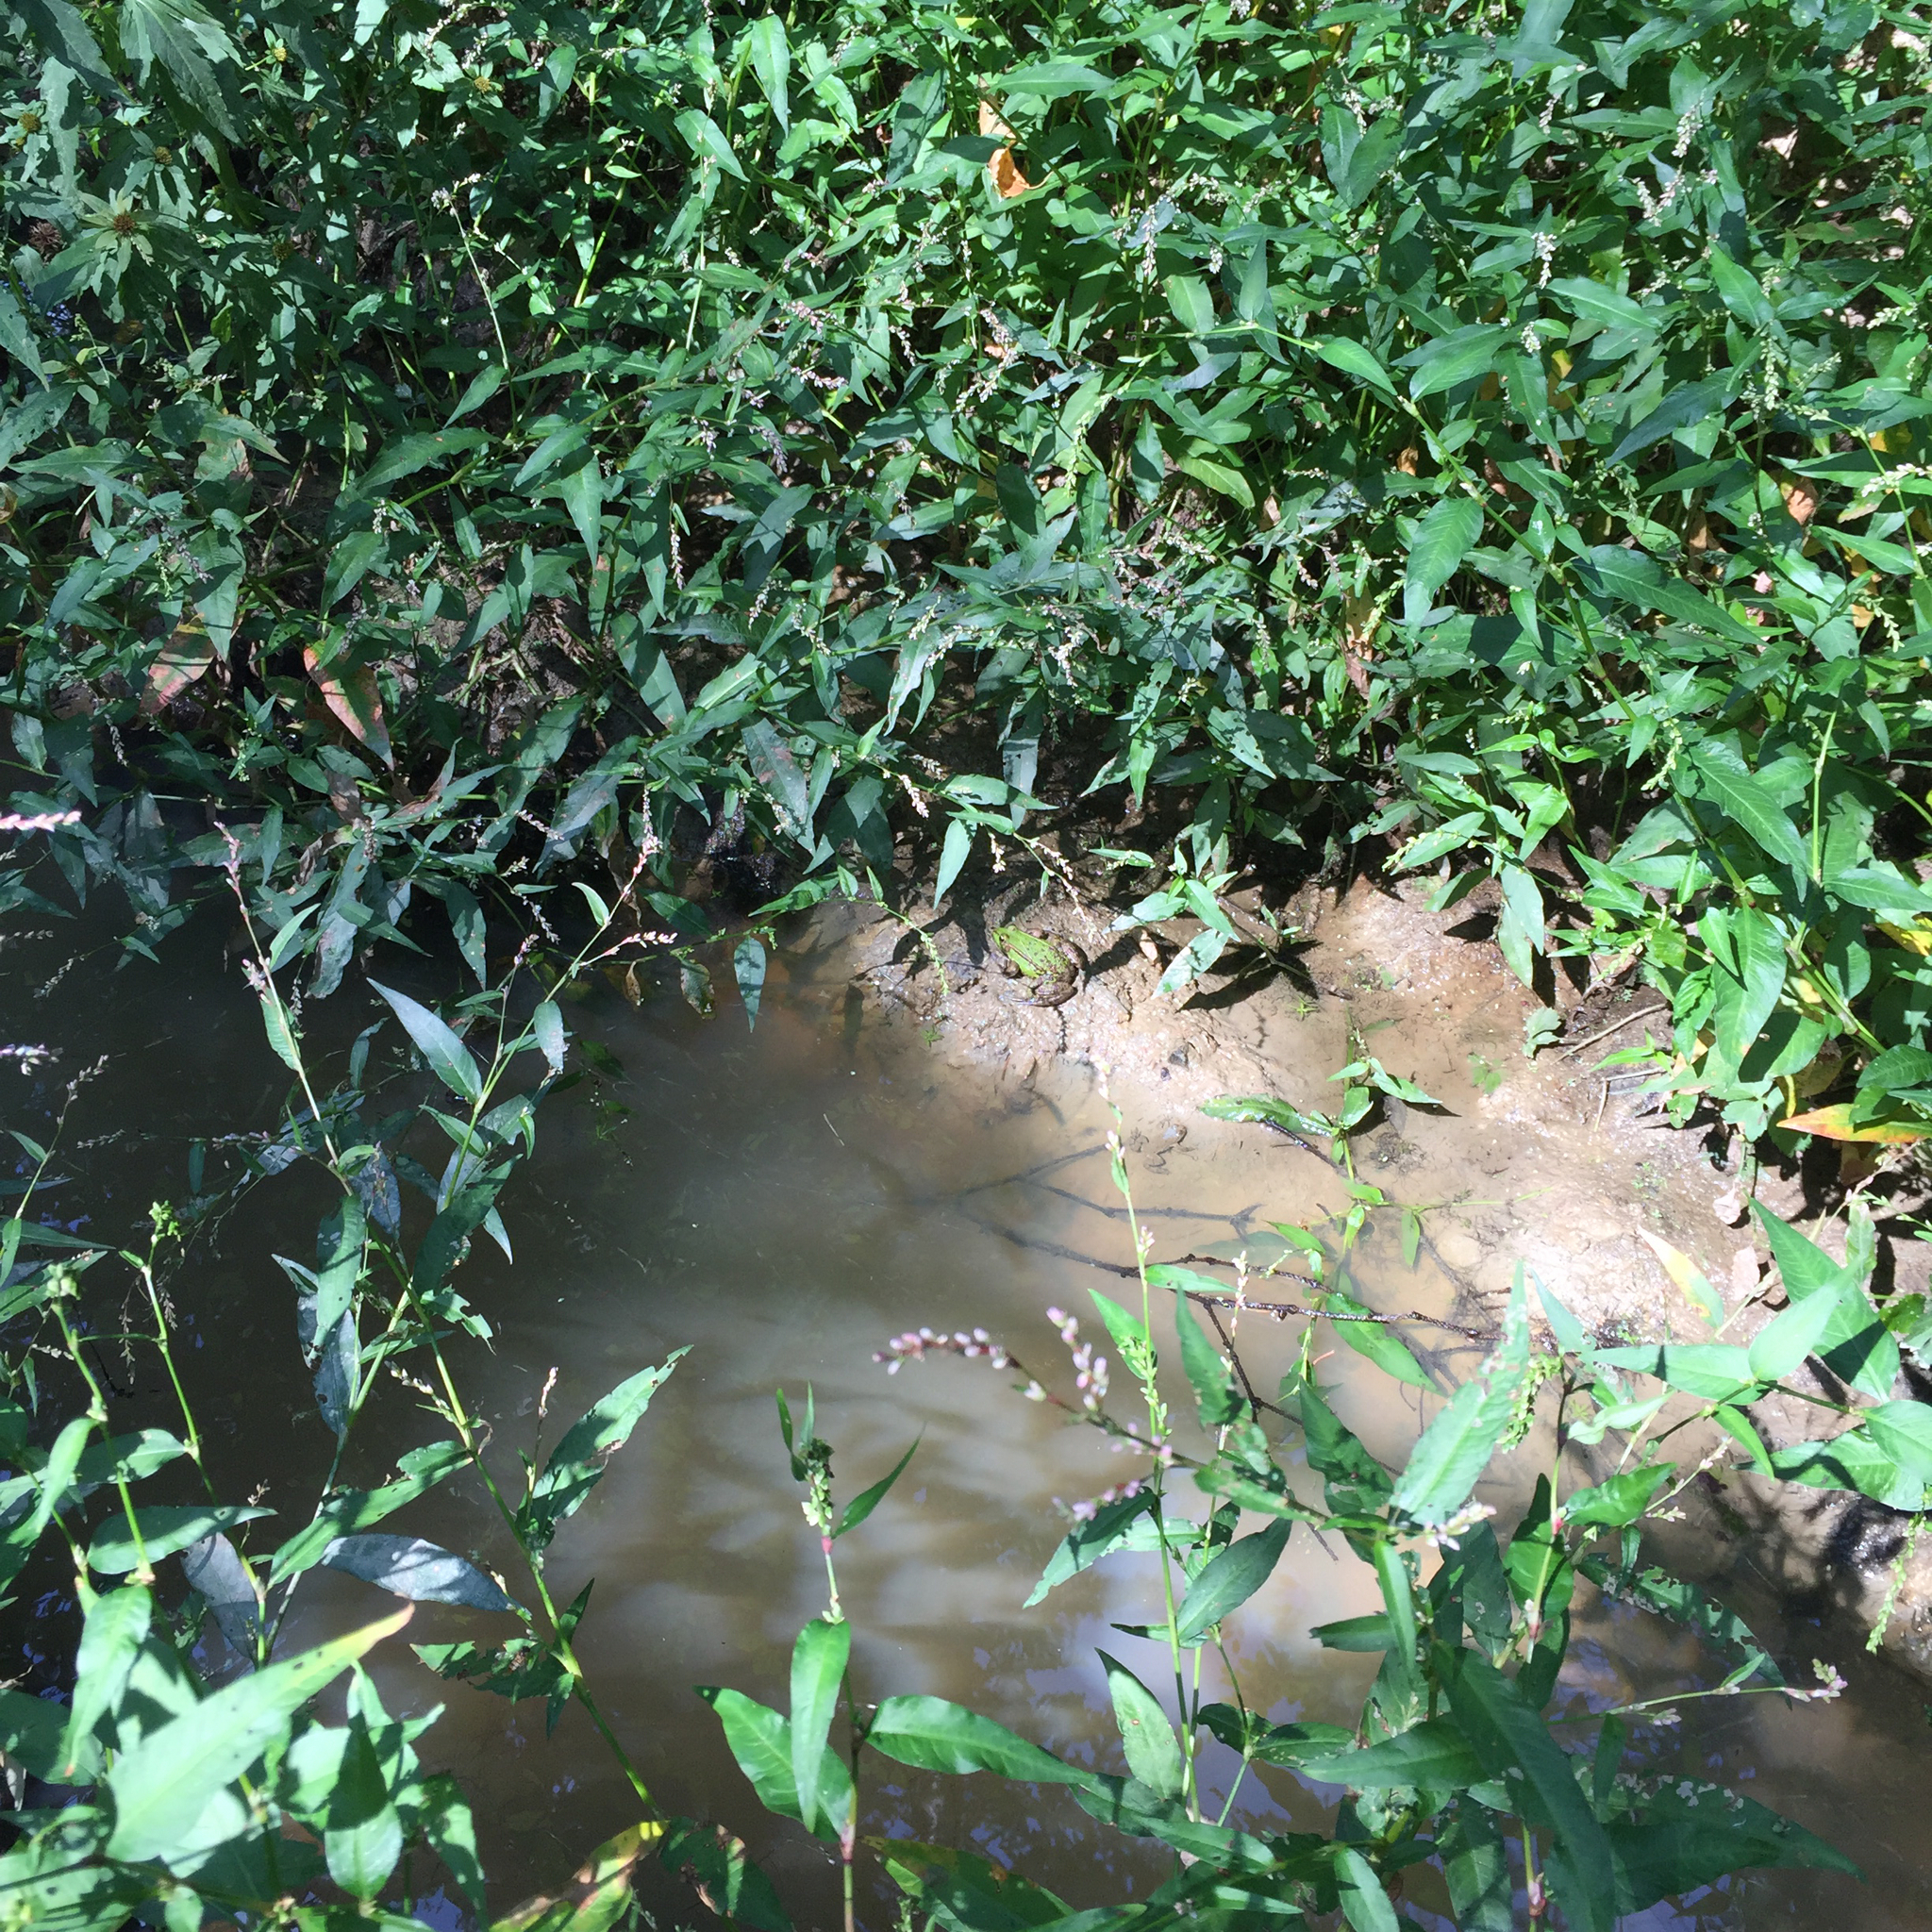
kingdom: Animalia
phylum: Chordata
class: Amphibia
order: Anura
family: Ranidae
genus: Pelophylax
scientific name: Pelophylax
